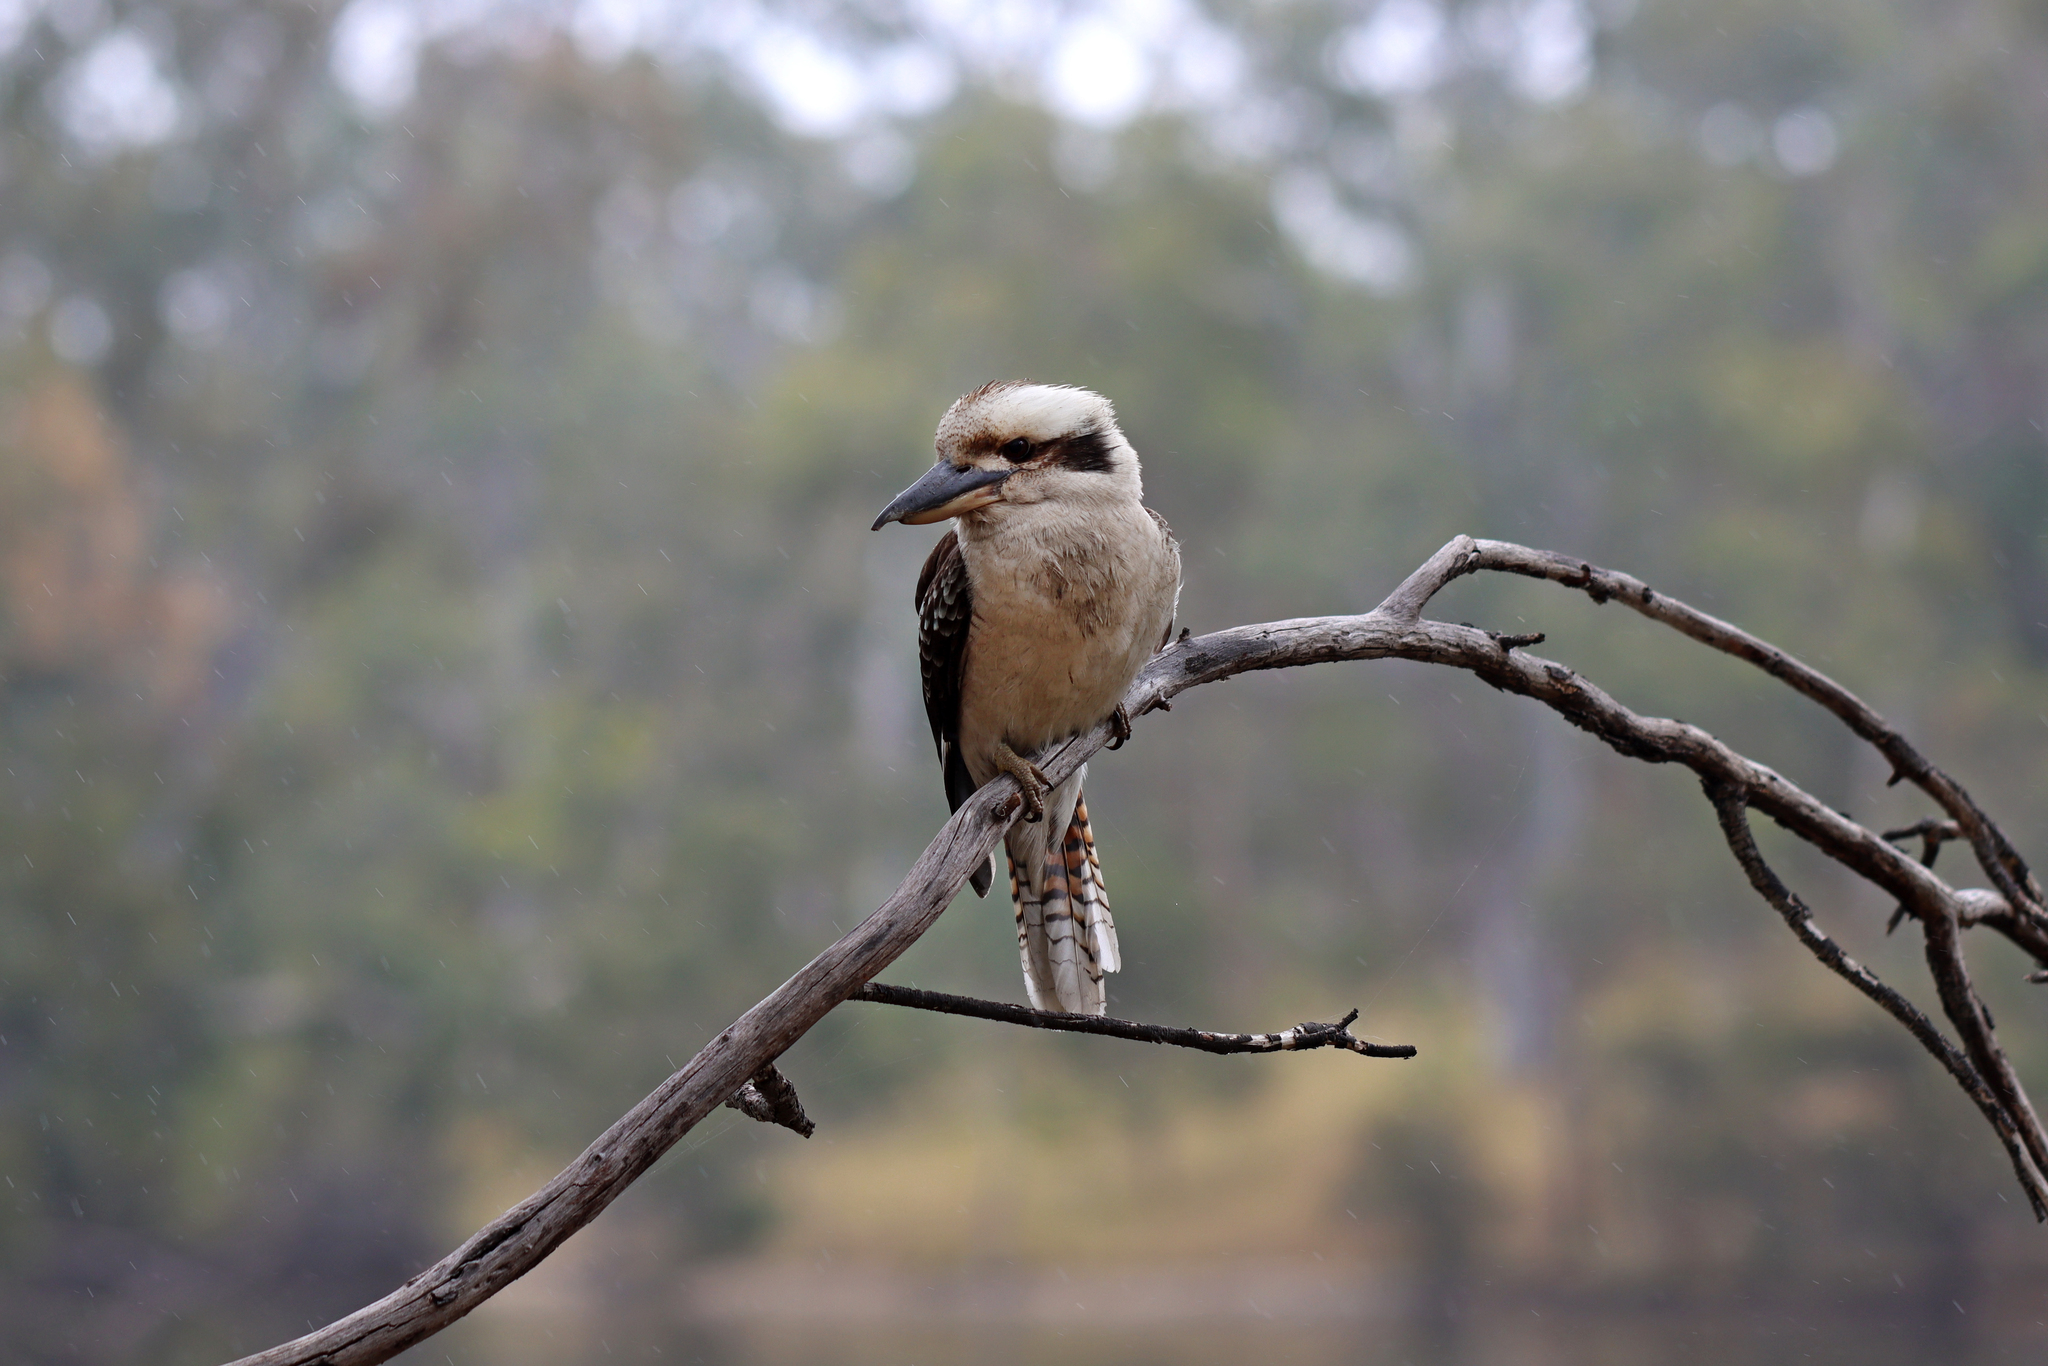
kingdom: Animalia
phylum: Chordata
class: Aves
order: Coraciiformes
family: Alcedinidae
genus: Dacelo
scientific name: Dacelo novaeguineae
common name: Laughing kookaburra
